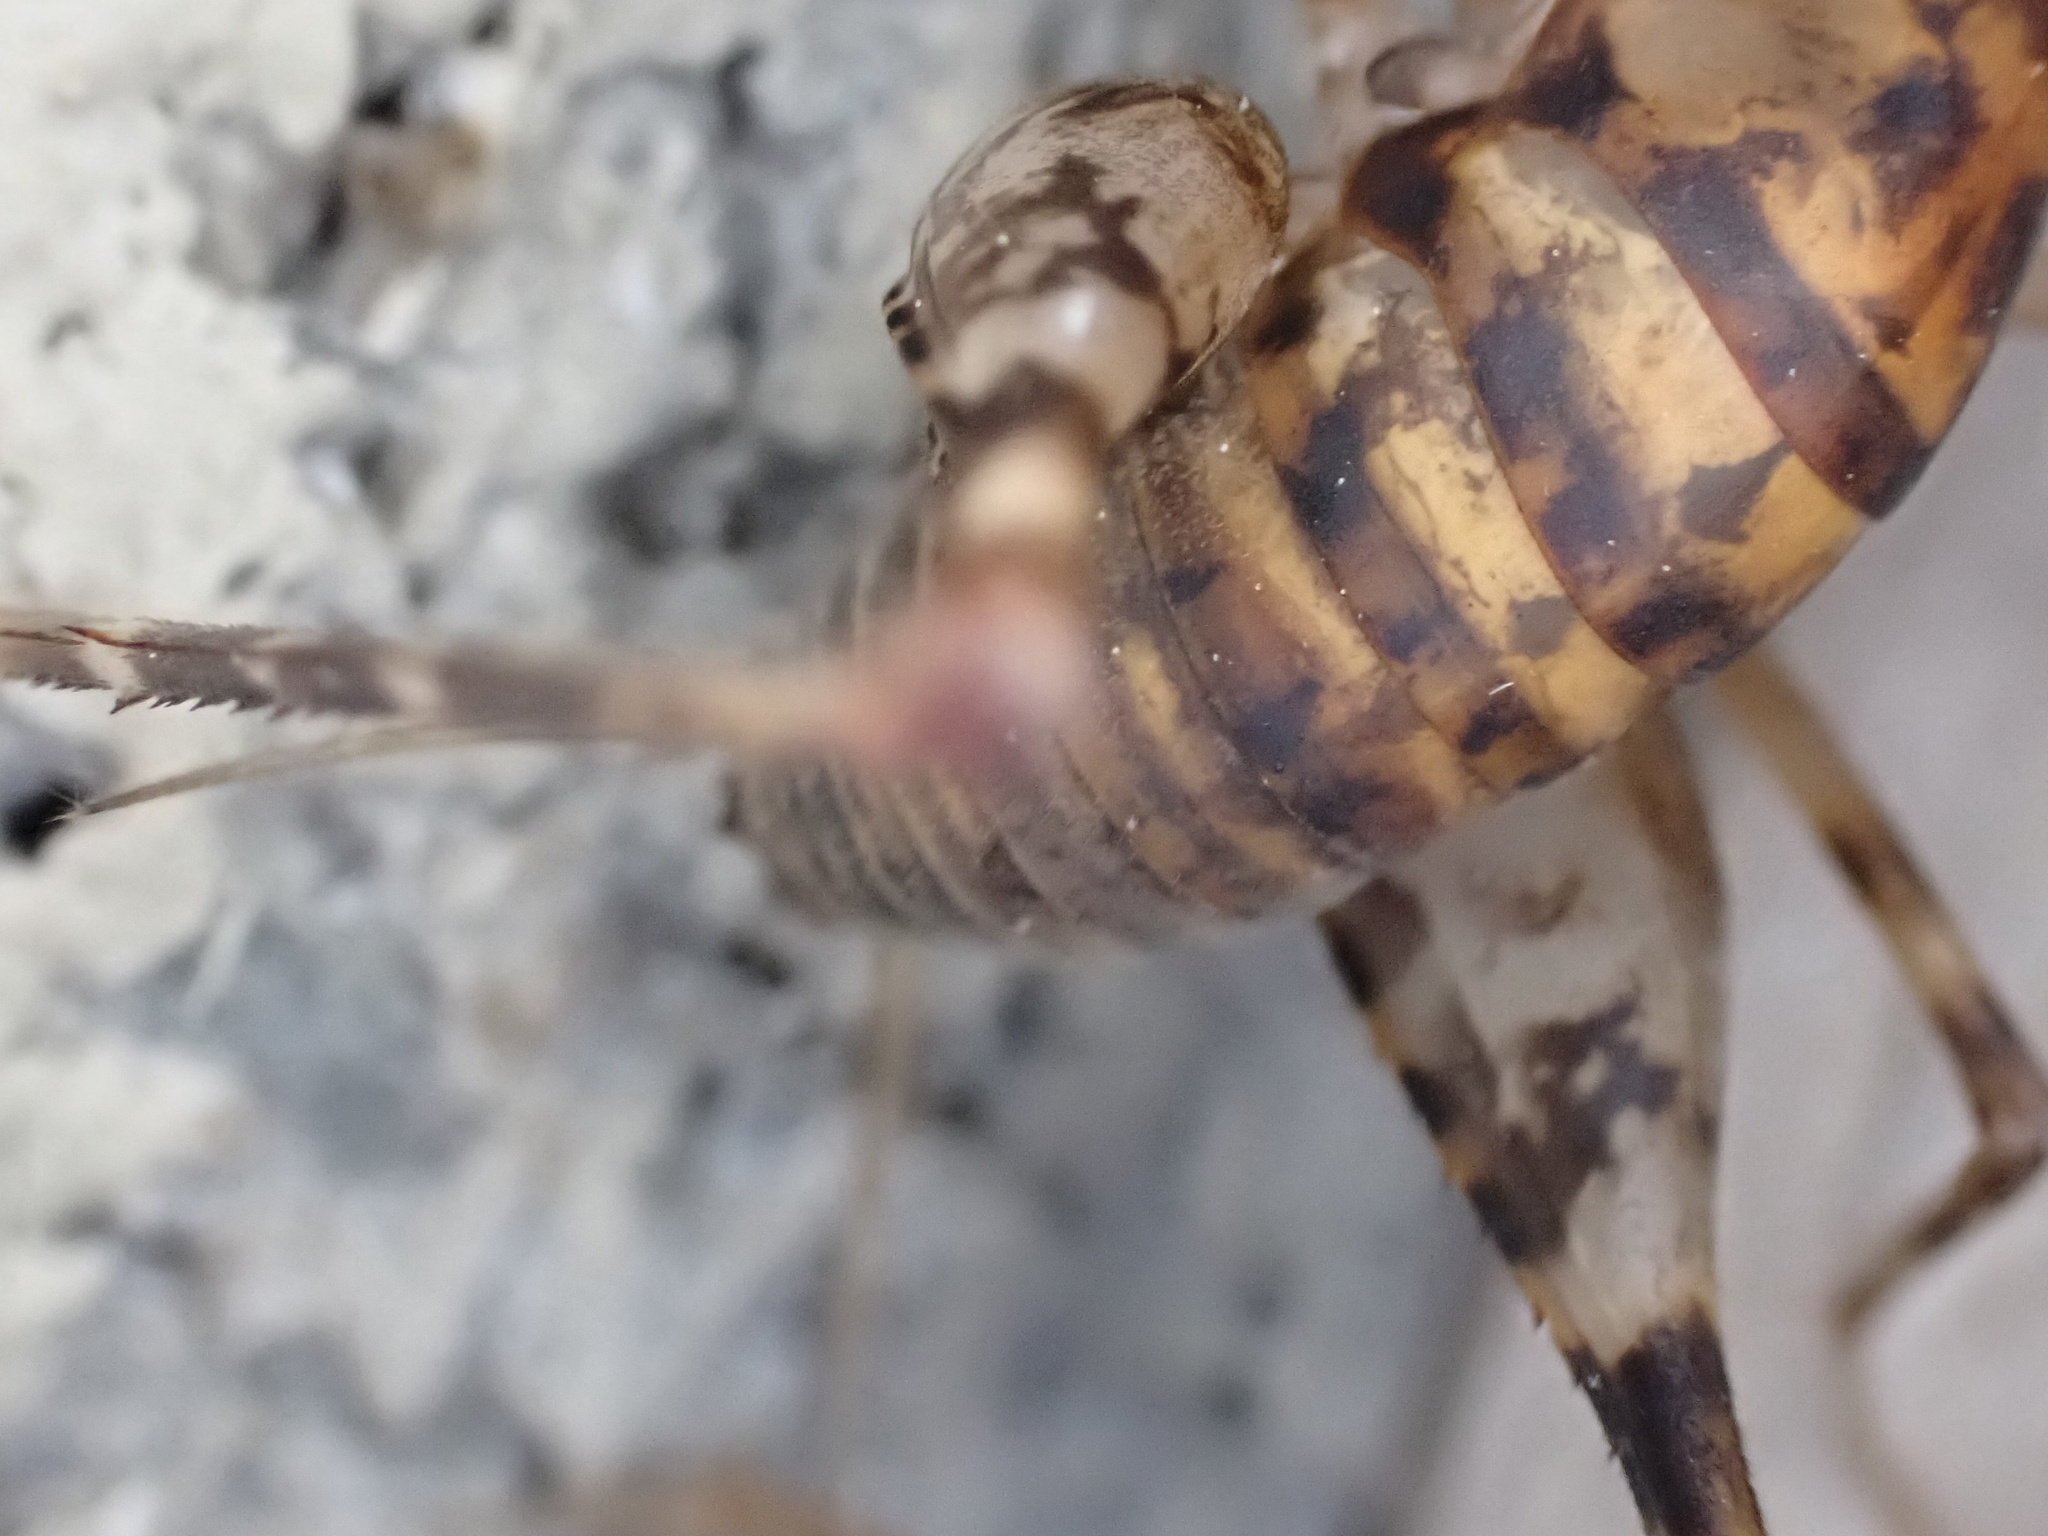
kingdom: Animalia
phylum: Arthropoda
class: Insecta
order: Orthoptera
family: Rhaphidophoridae
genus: Tachycines
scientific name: Tachycines asynamorus
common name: Greenhouse camel cricket
